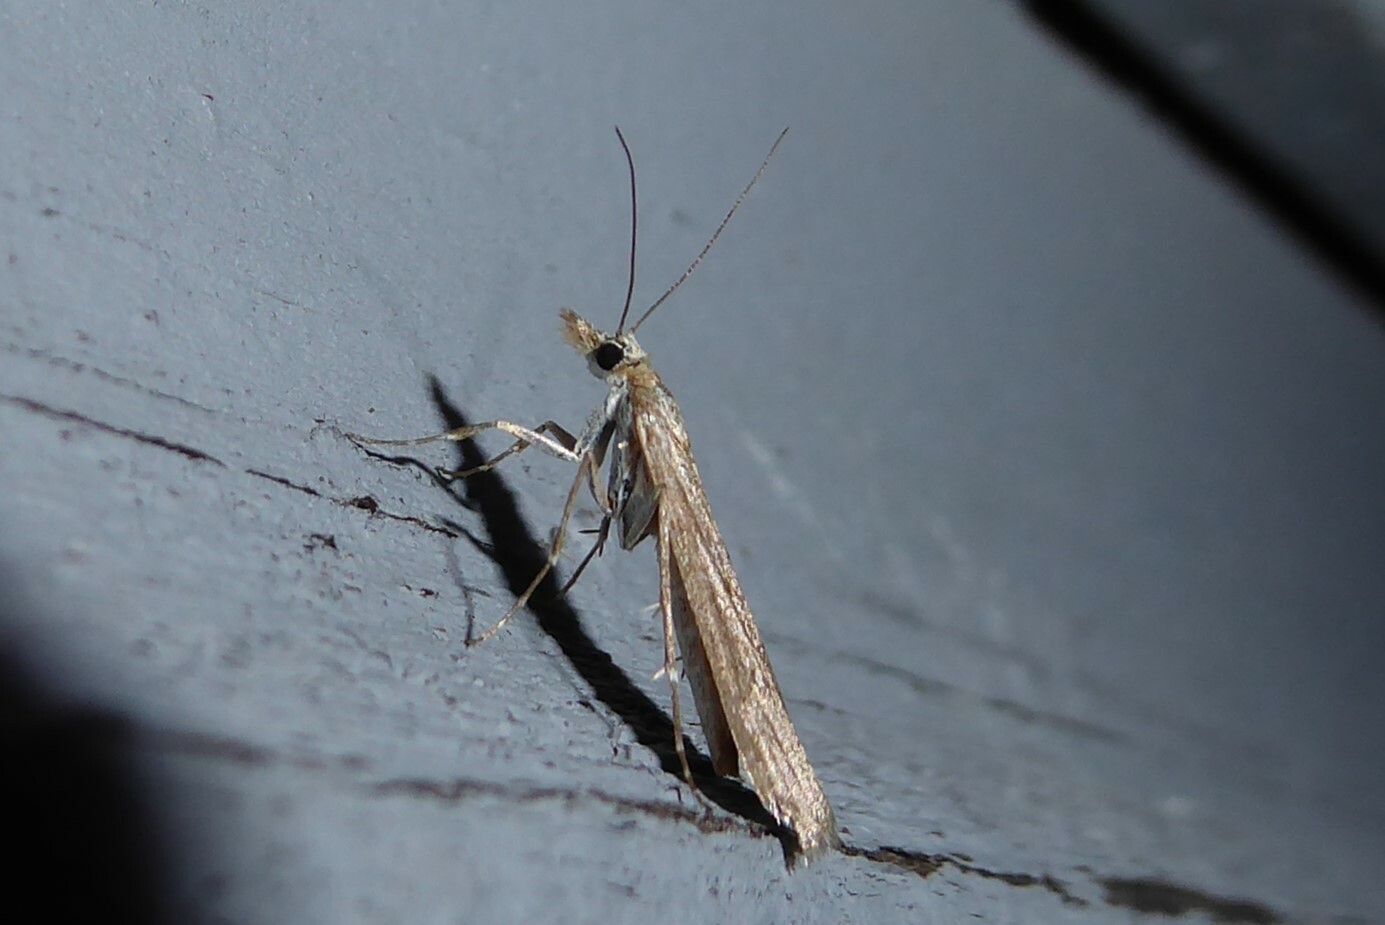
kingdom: Animalia
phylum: Arthropoda
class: Insecta
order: Lepidoptera
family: Crambidae
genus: Eudonia
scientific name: Eudonia leptalea
